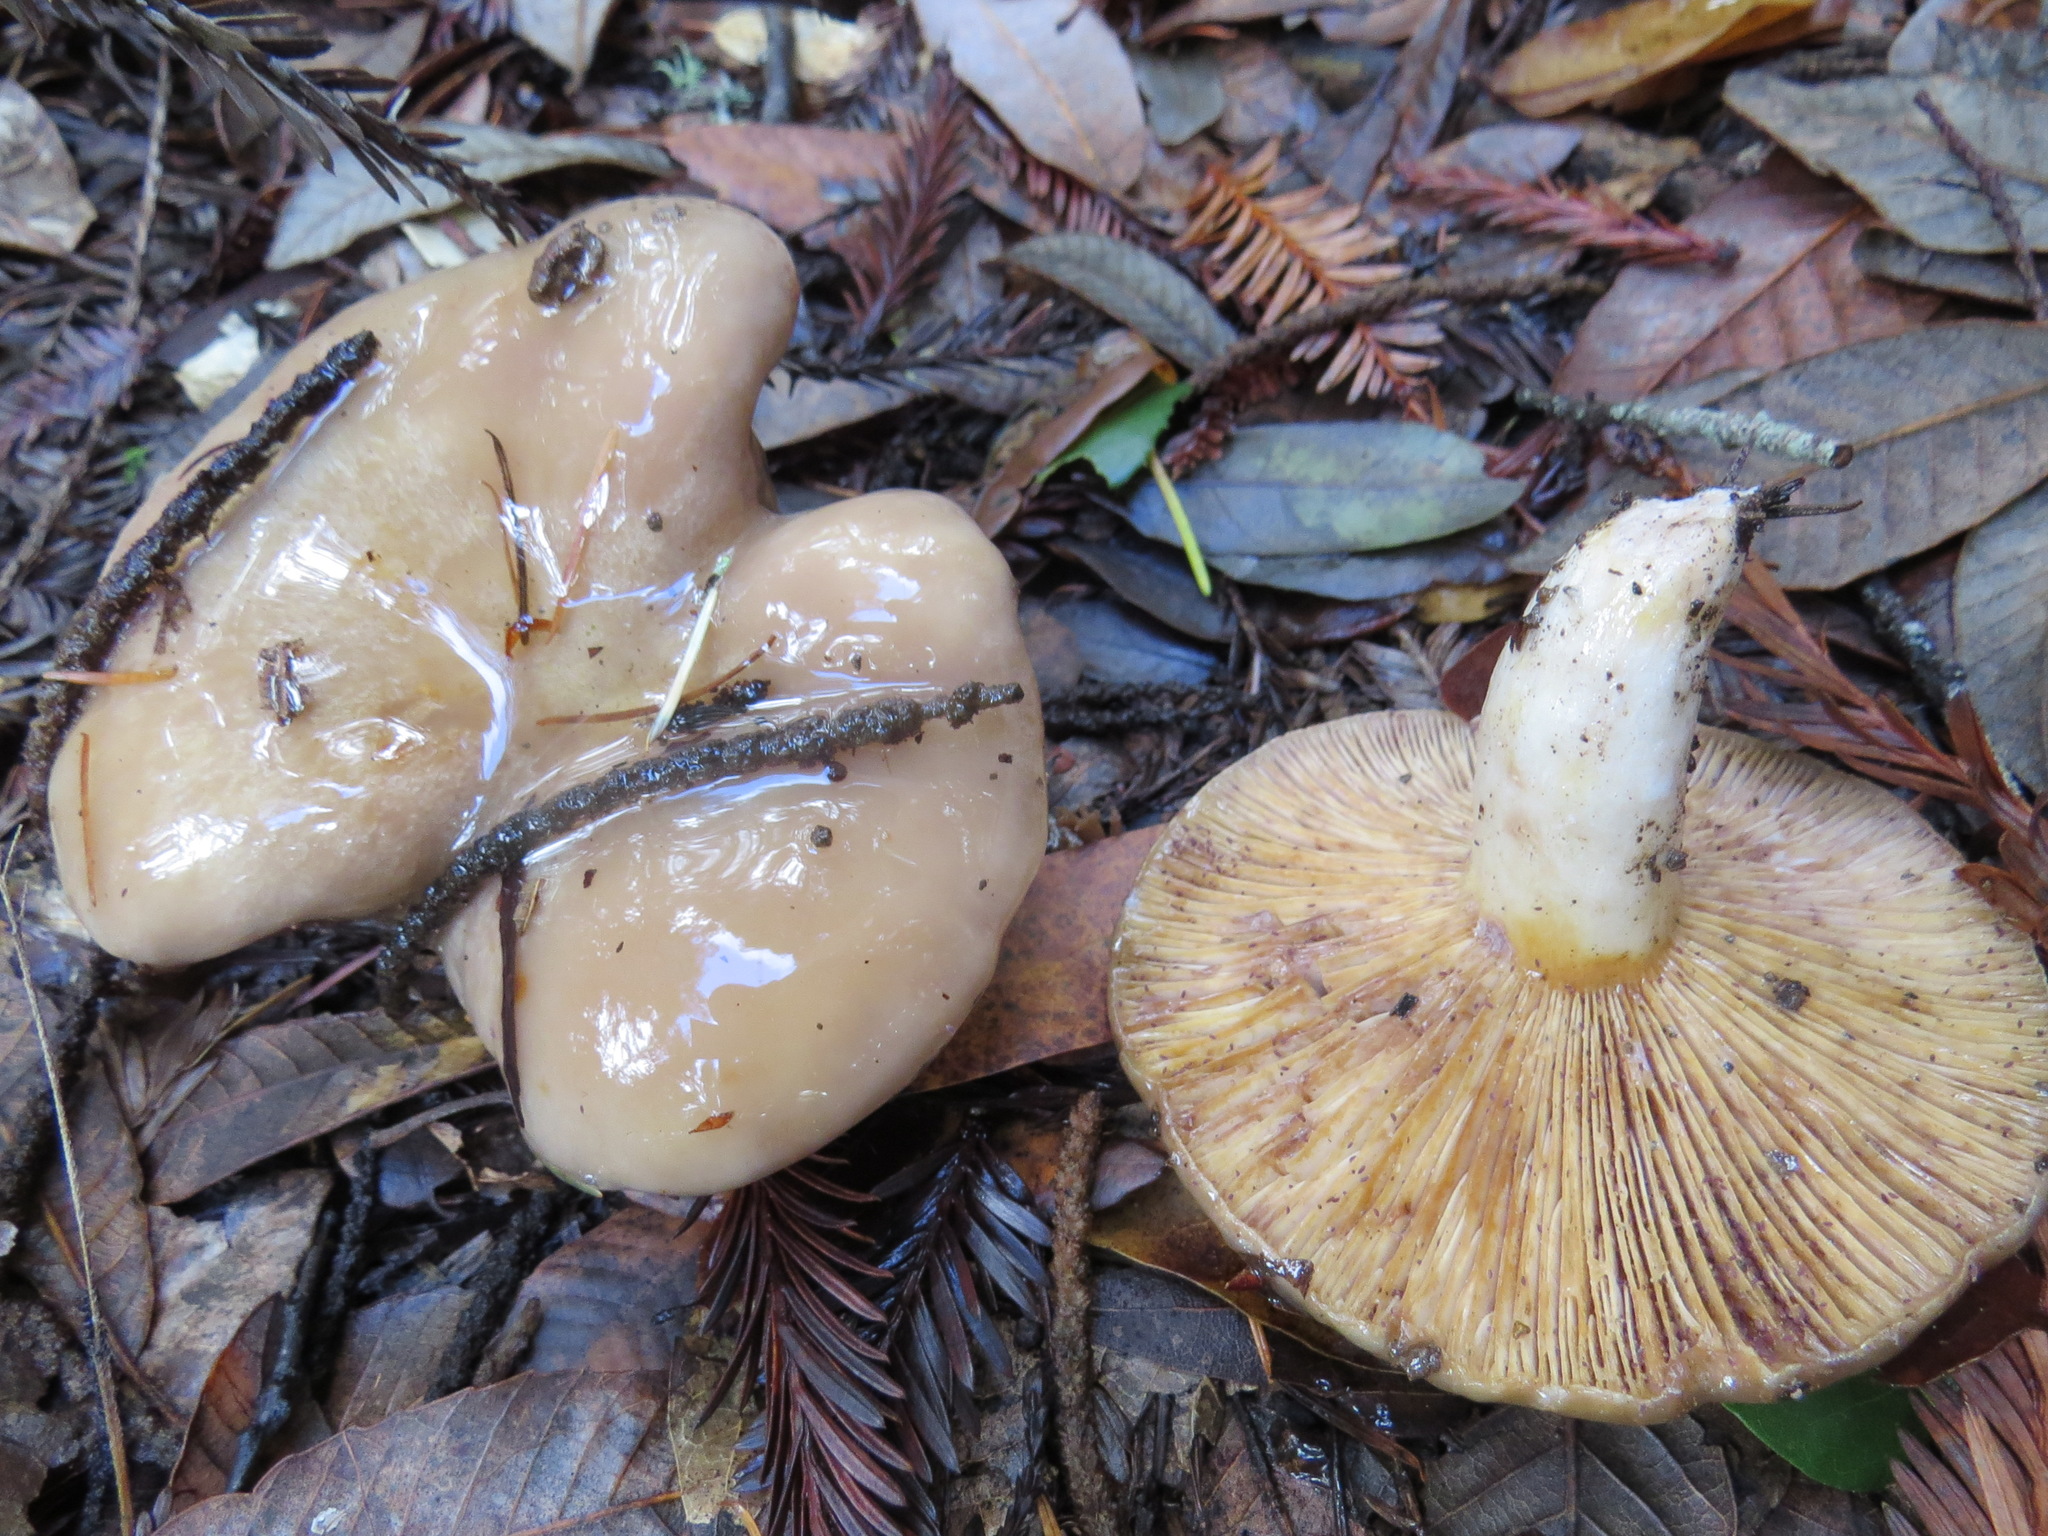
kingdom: Fungi
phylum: Basidiomycota
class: Agaricomycetes
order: Russulales
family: Russulaceae
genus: Lactarius
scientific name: Lactarius californiensis
